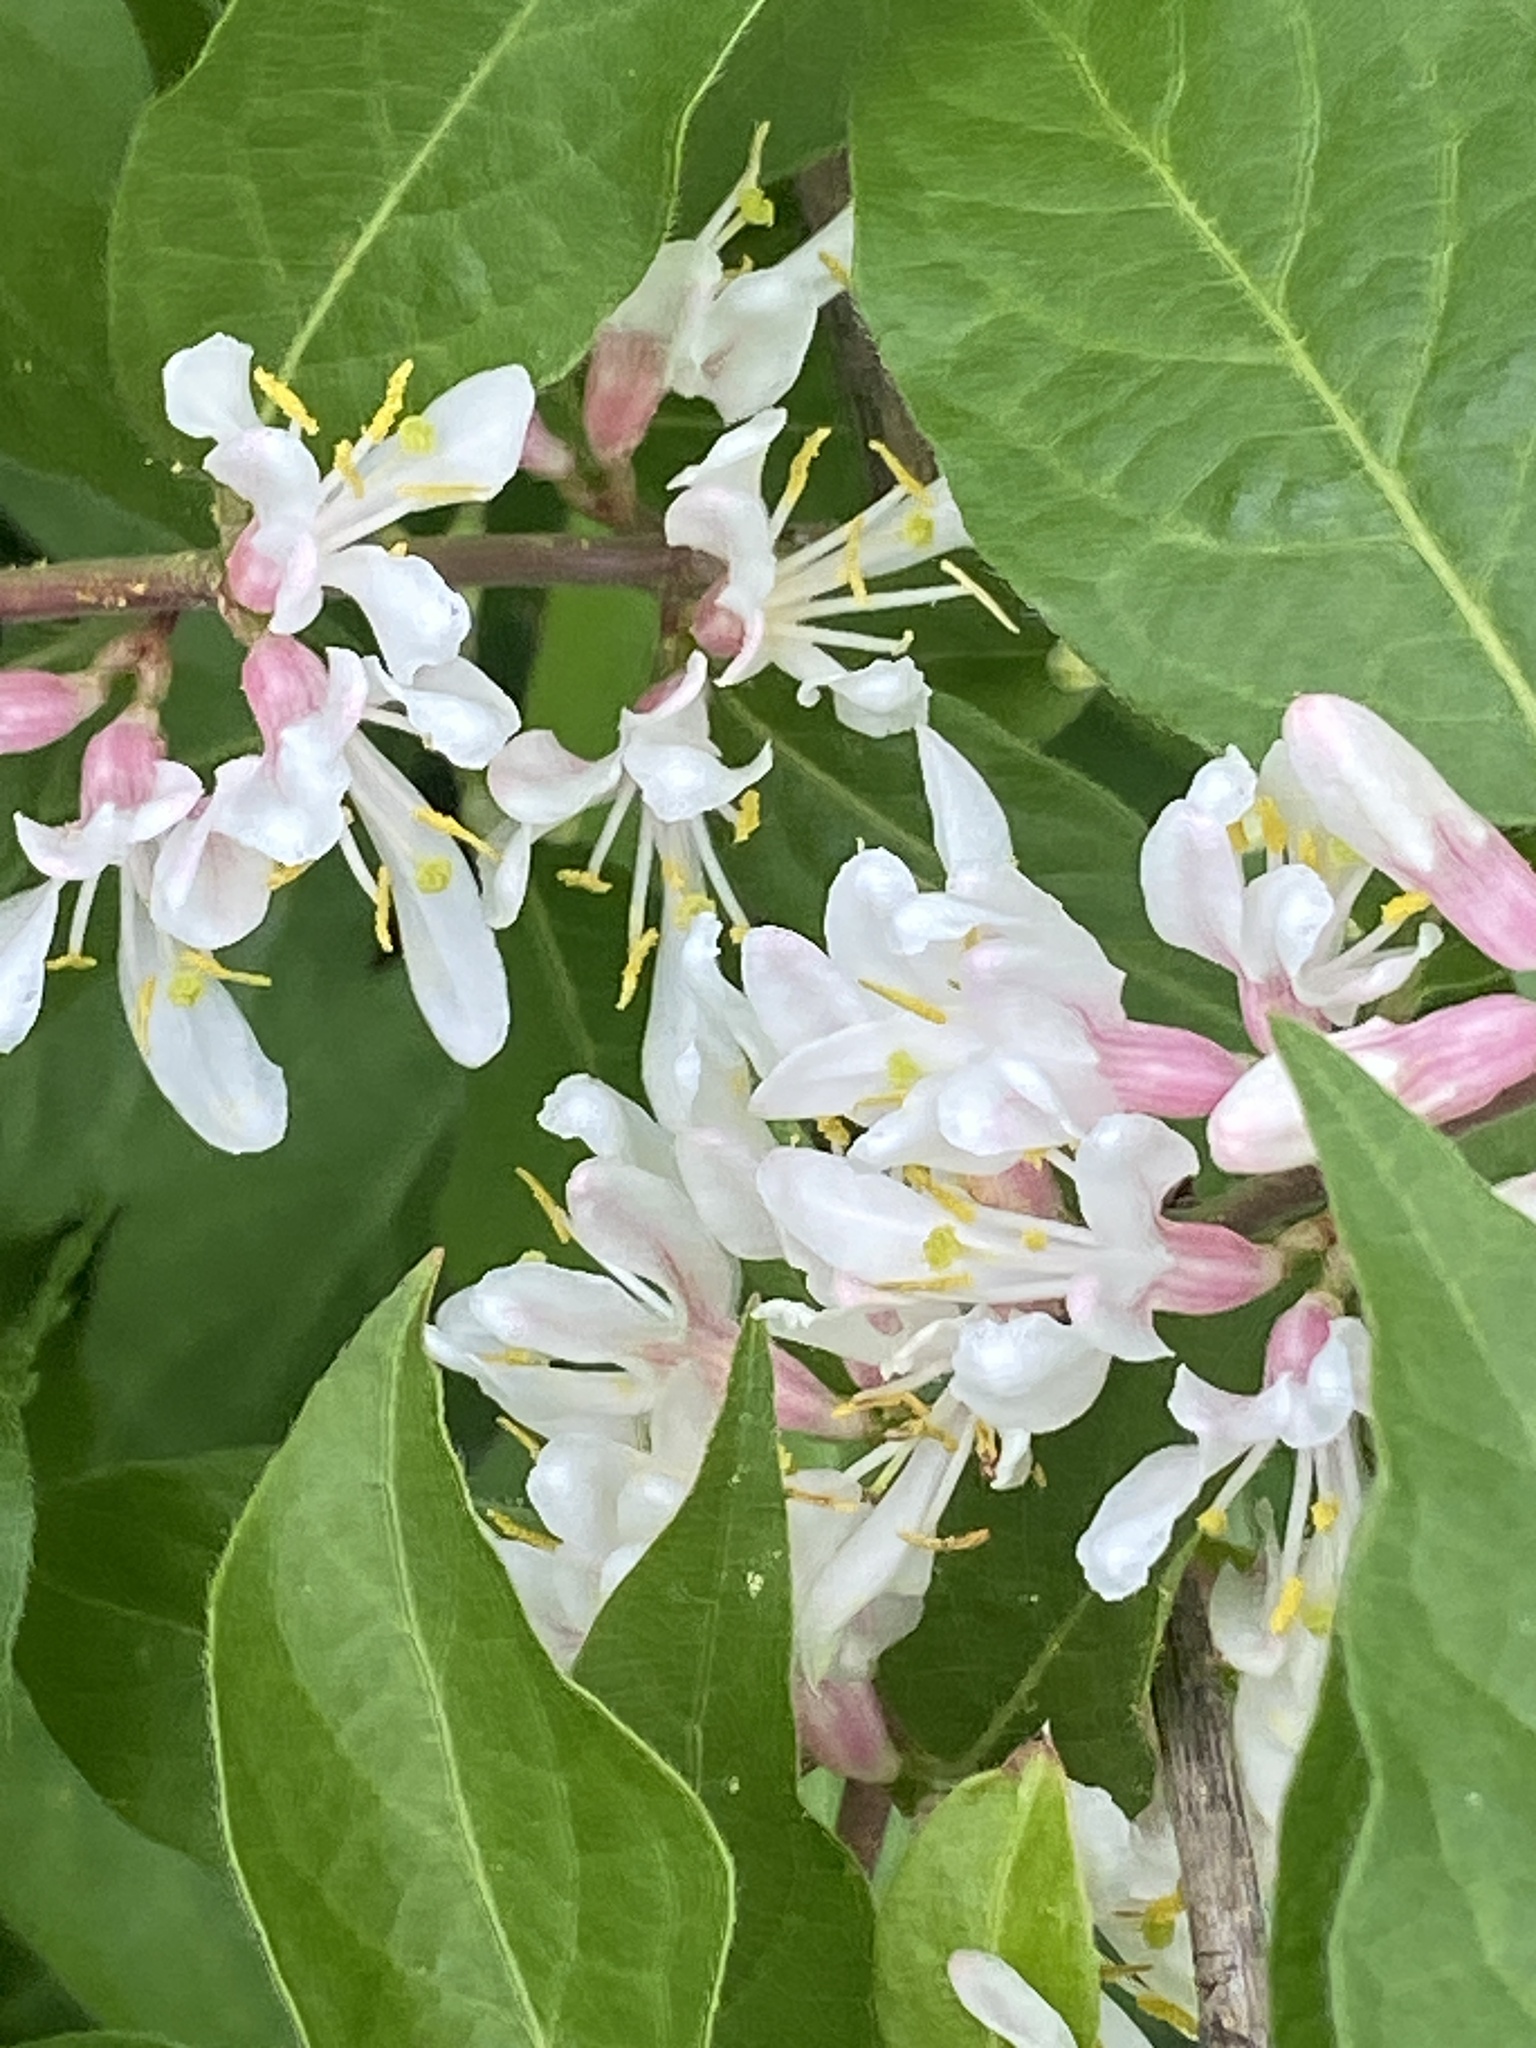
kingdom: Plantae
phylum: Tracheophyta
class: Magnoliopsida
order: Dipsacales
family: Caprifoliaceae
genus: Lonicera
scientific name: Lonicera maackii
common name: Amur honeysuckle
